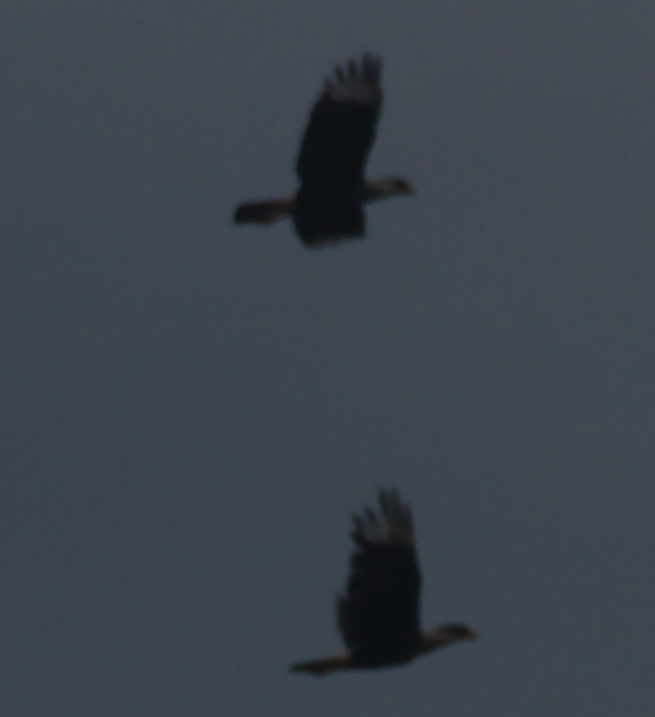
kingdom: Animalia
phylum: Chordata
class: Aves
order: Falconiformes
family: Falconidae
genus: Caracara
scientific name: Caracara plancus
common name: Southern caracara
